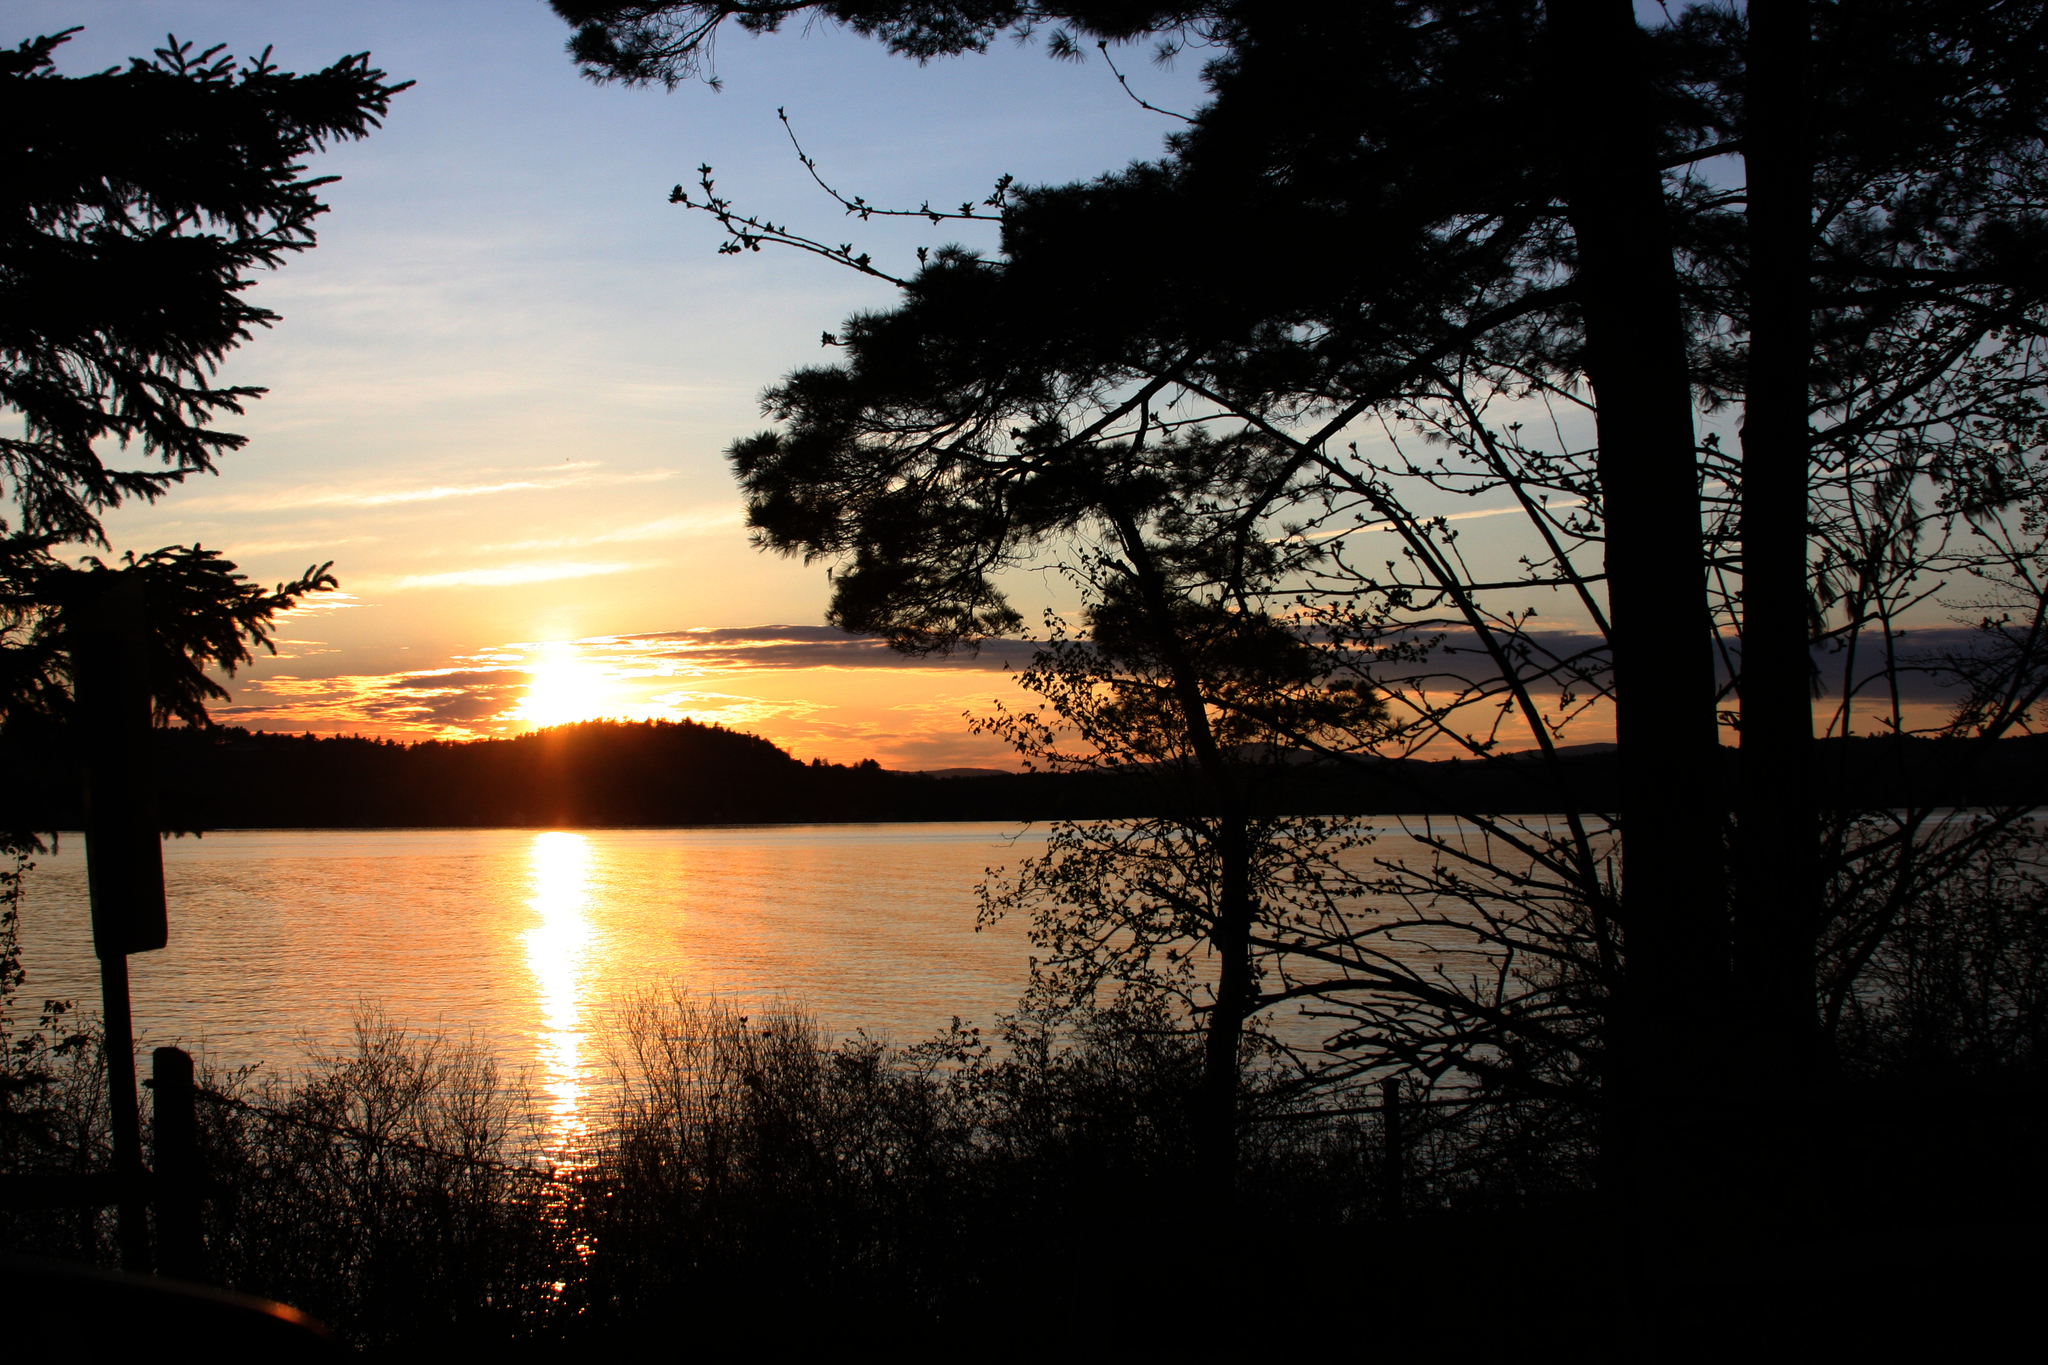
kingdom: Plantae
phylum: Tracheophyta
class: Pinopsida
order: Pinales
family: Pinaceae
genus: Pinus
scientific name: Pinus strobus
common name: Weymouth pine
